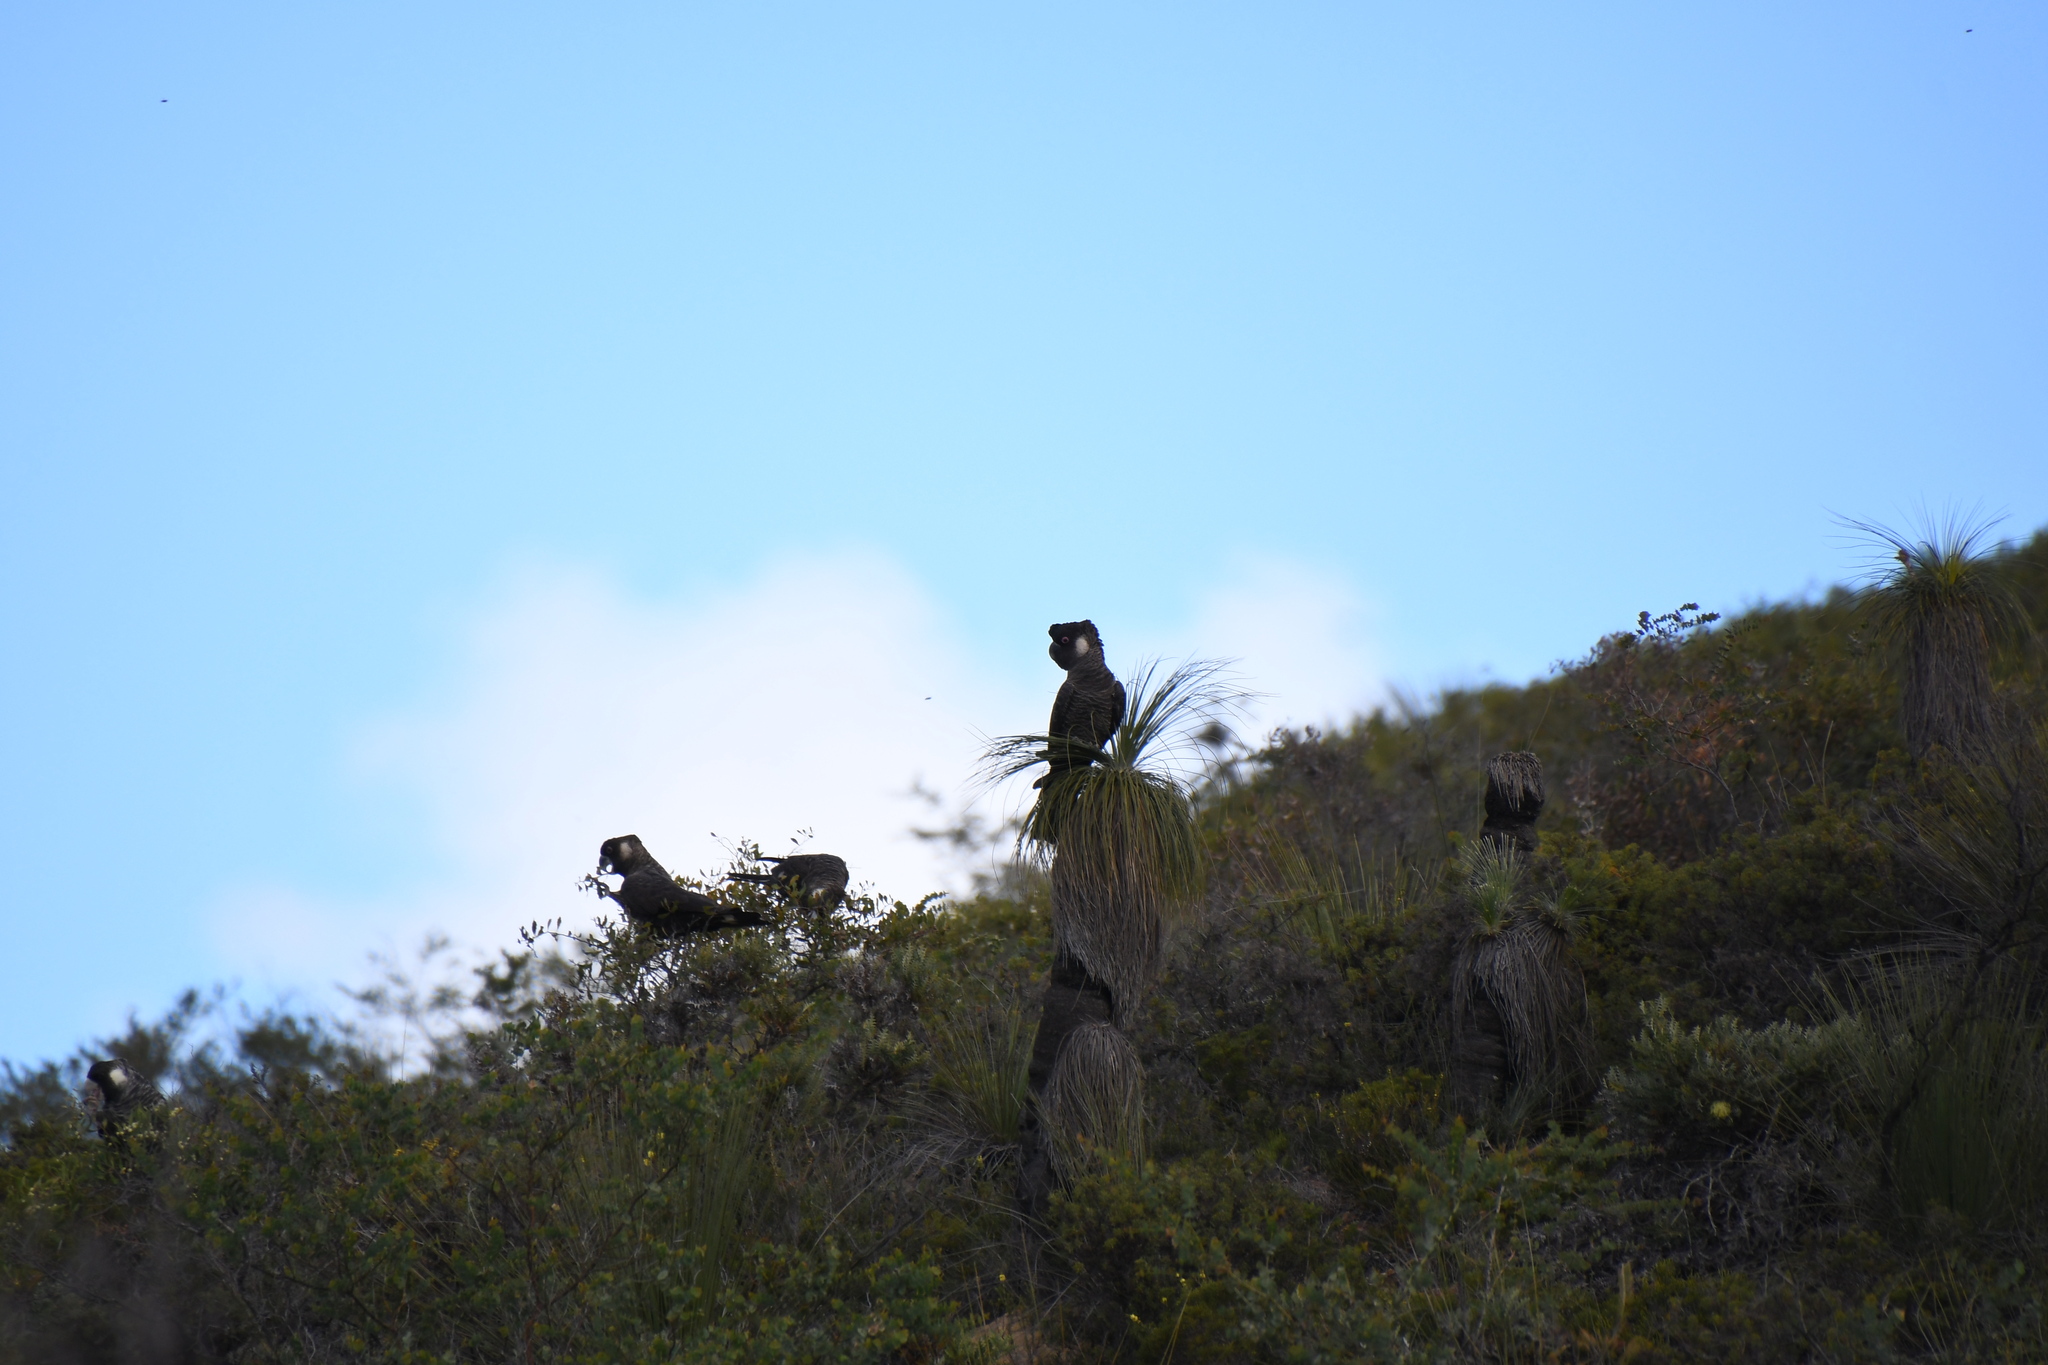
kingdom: Animalia
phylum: Chordata
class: Aves
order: Psittaciformes
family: Cacatuidae
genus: Zanda
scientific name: Zanda latirostris
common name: Short-billed black-cockatoo
